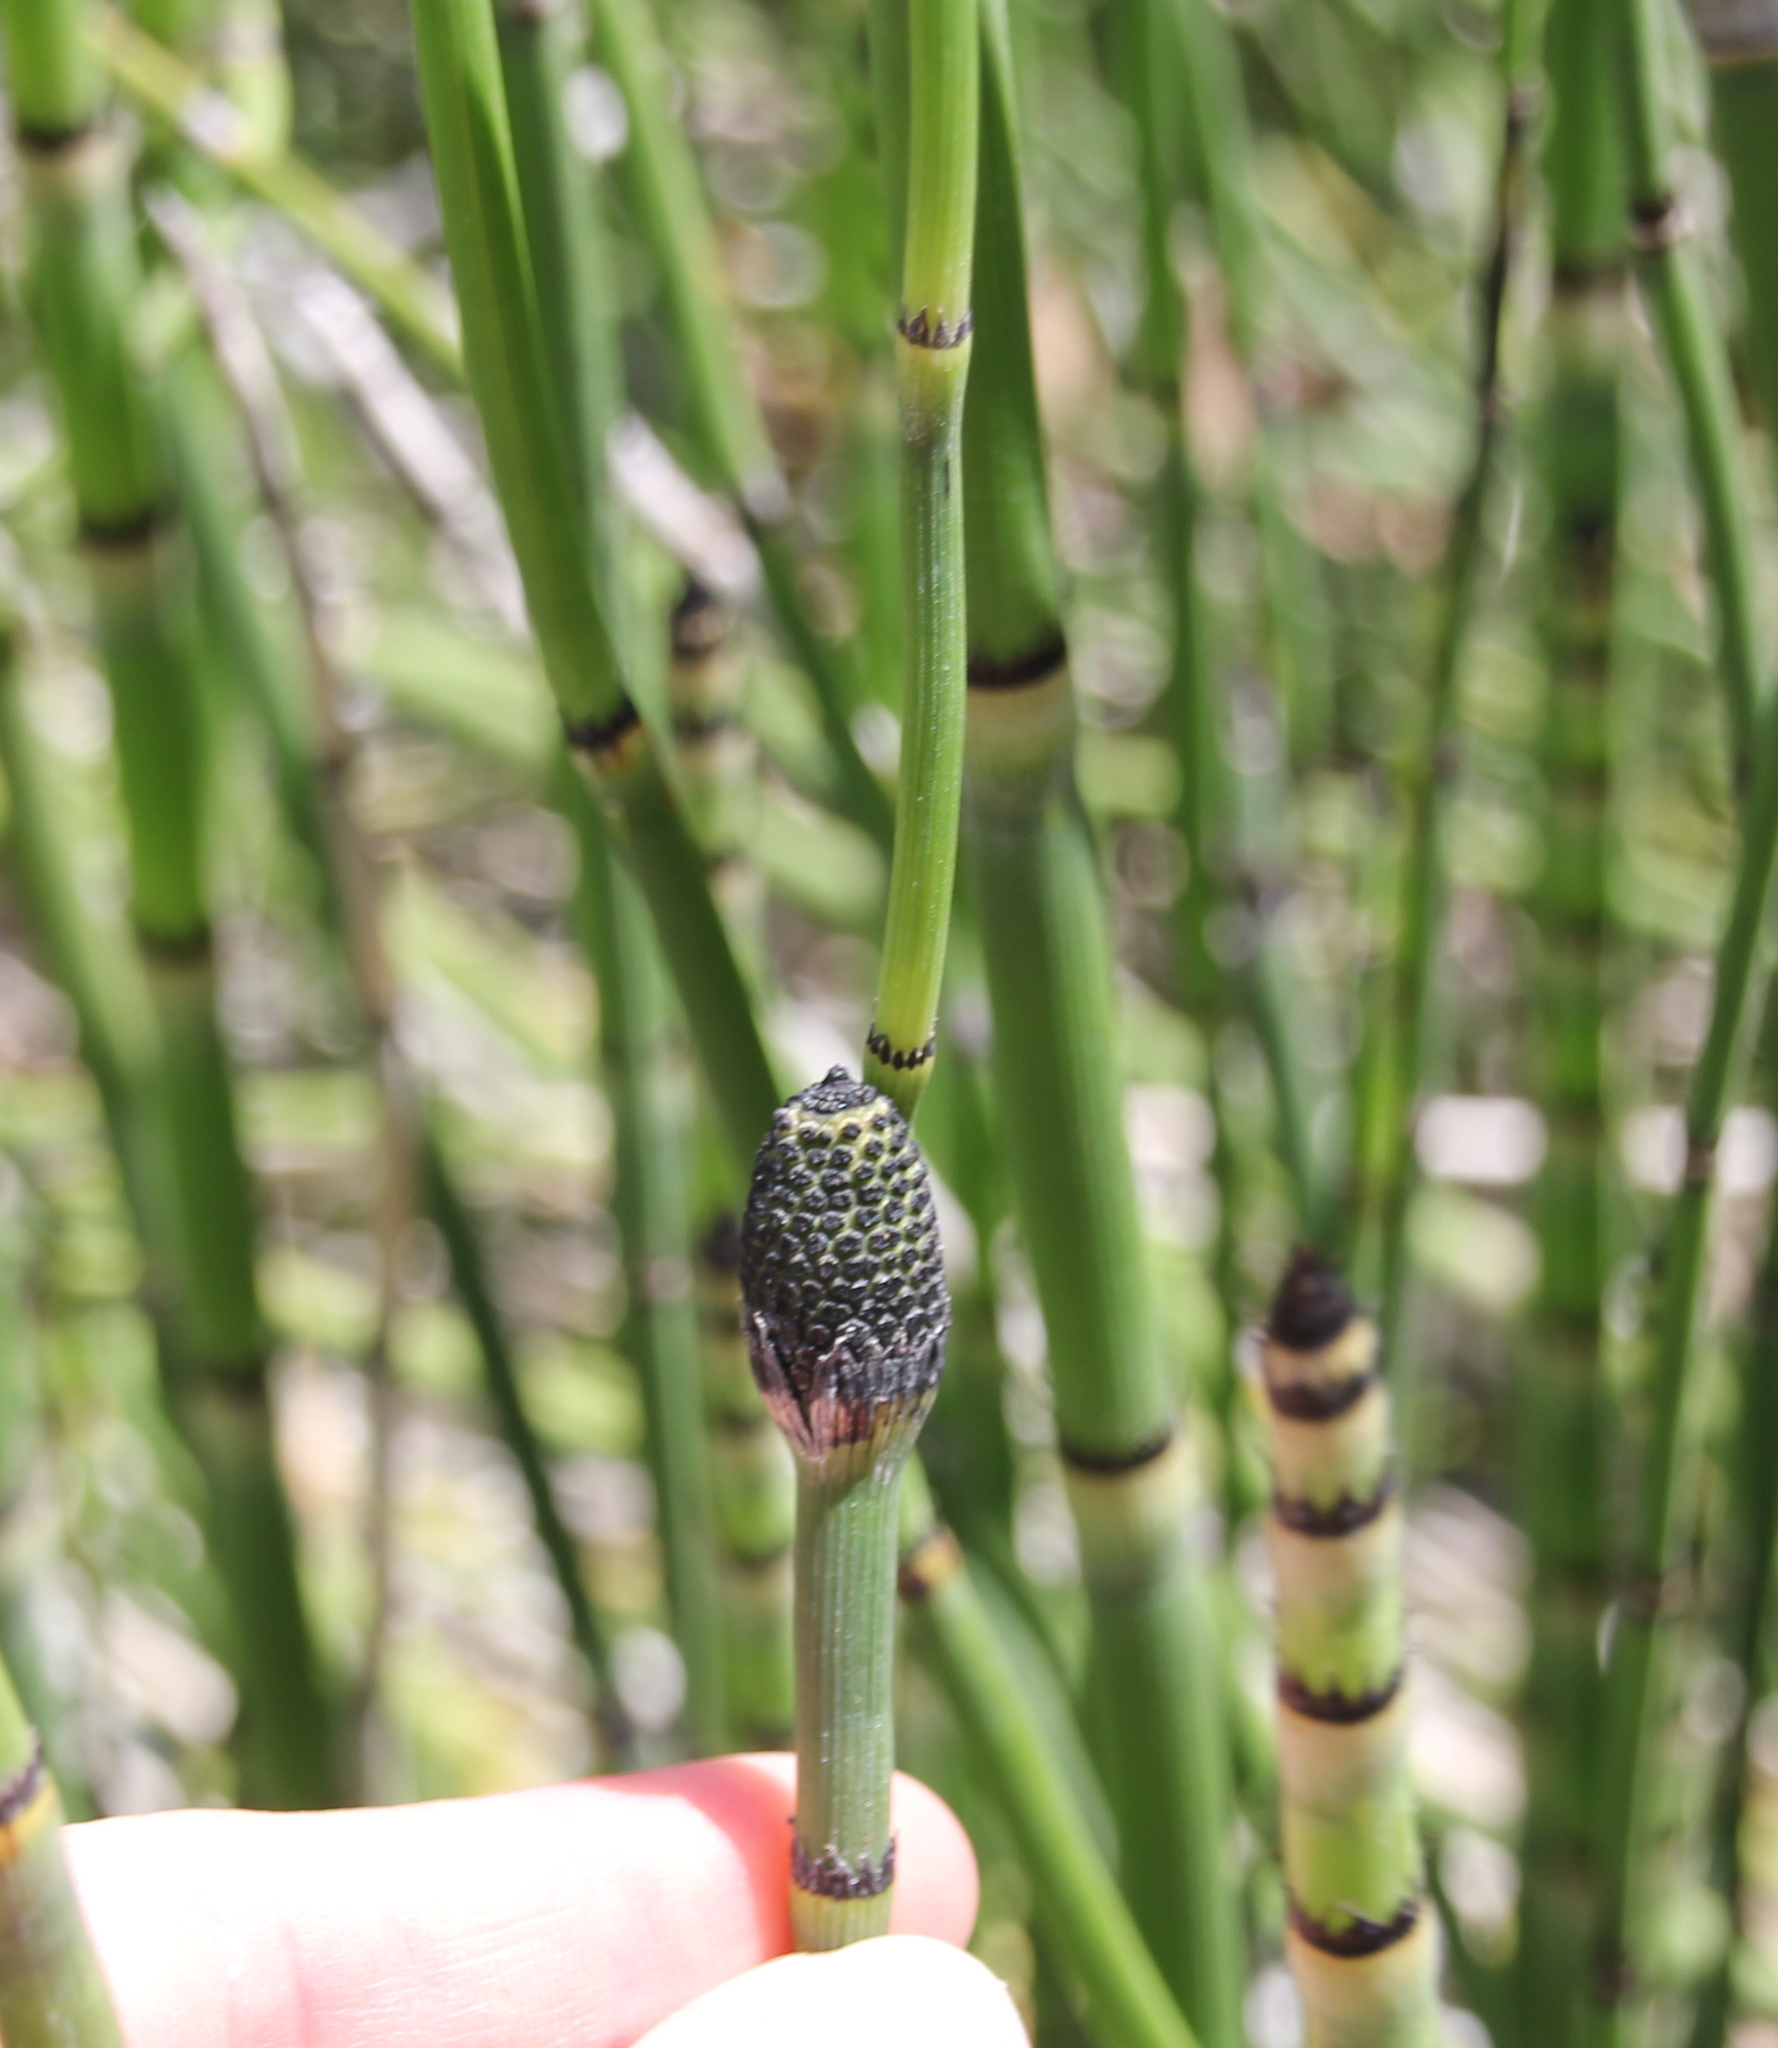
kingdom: Plantae
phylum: Tracheophyta
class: Polypodiopsida
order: Equisetales
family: Equisetaceae
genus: Equisetum
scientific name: Equisetum laevigatum
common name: Smooth scouring-rush
